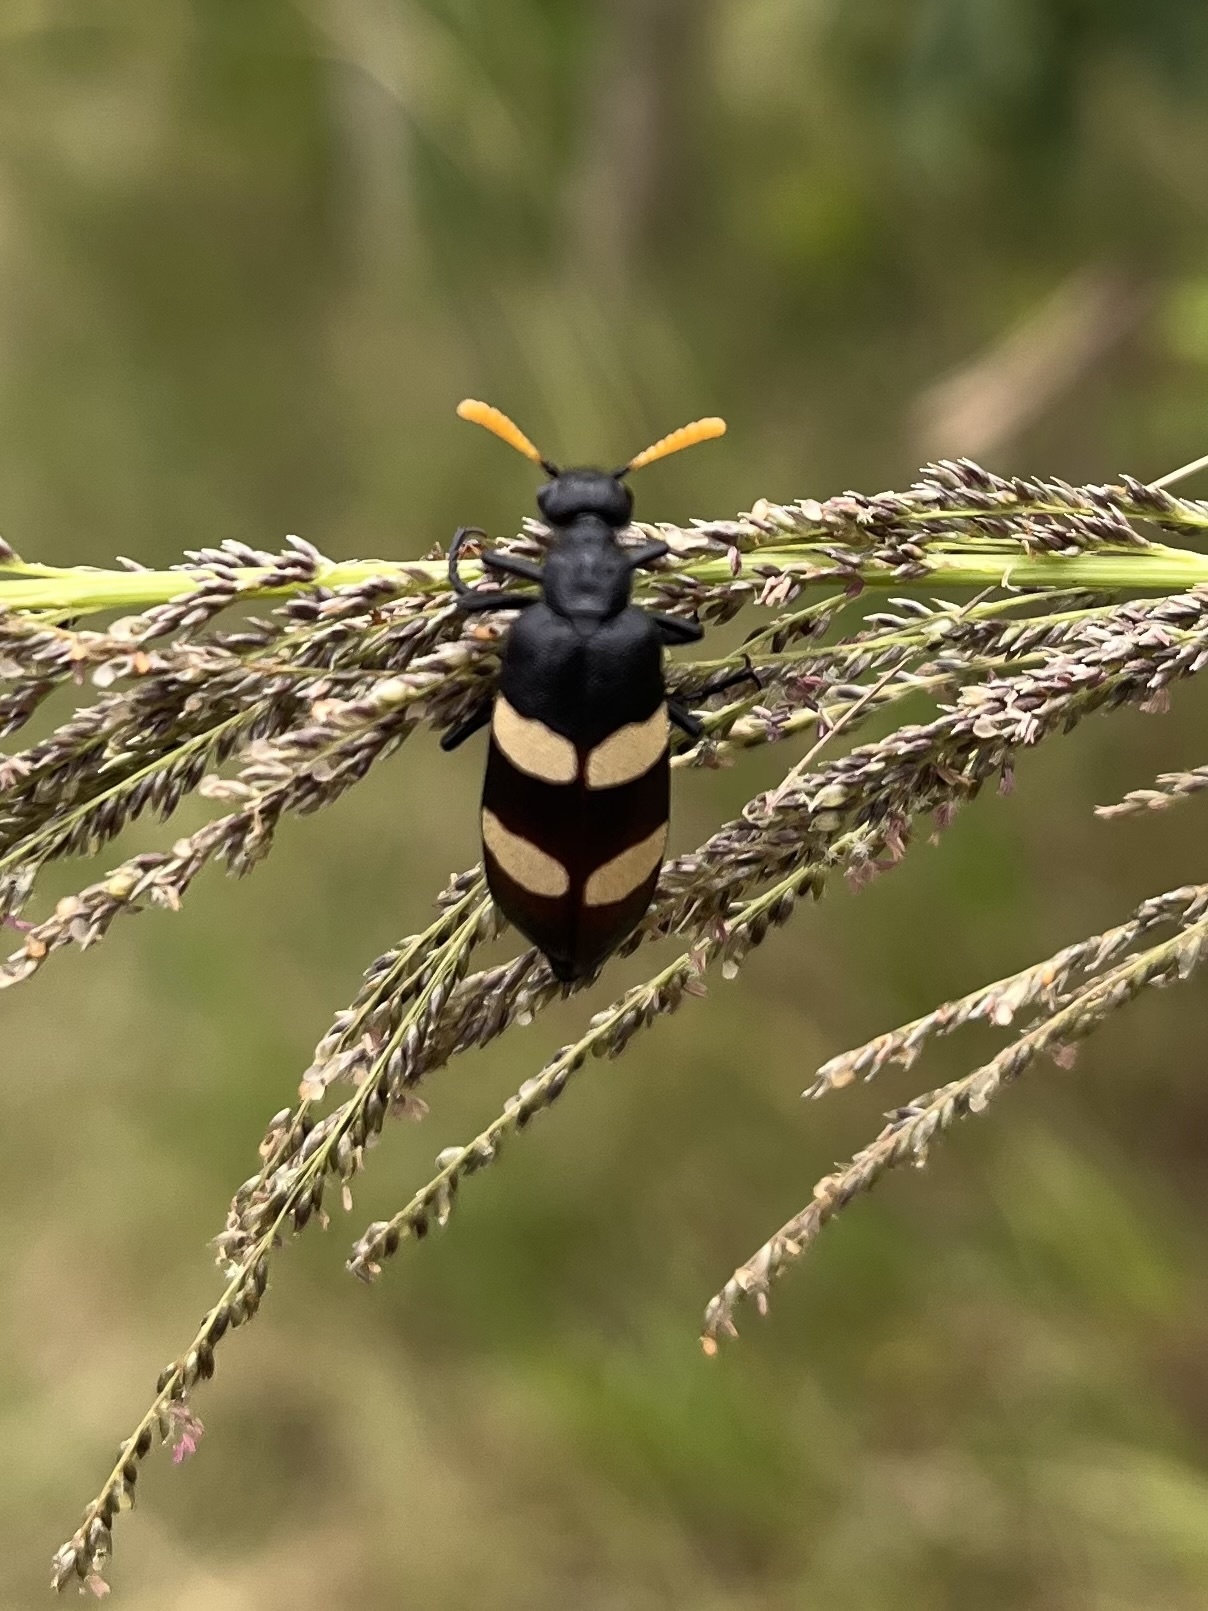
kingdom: Animalia
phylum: Arthropoda
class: Insecta
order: Coleoptera
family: Meloidae
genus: Hycleus
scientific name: Hycleus
